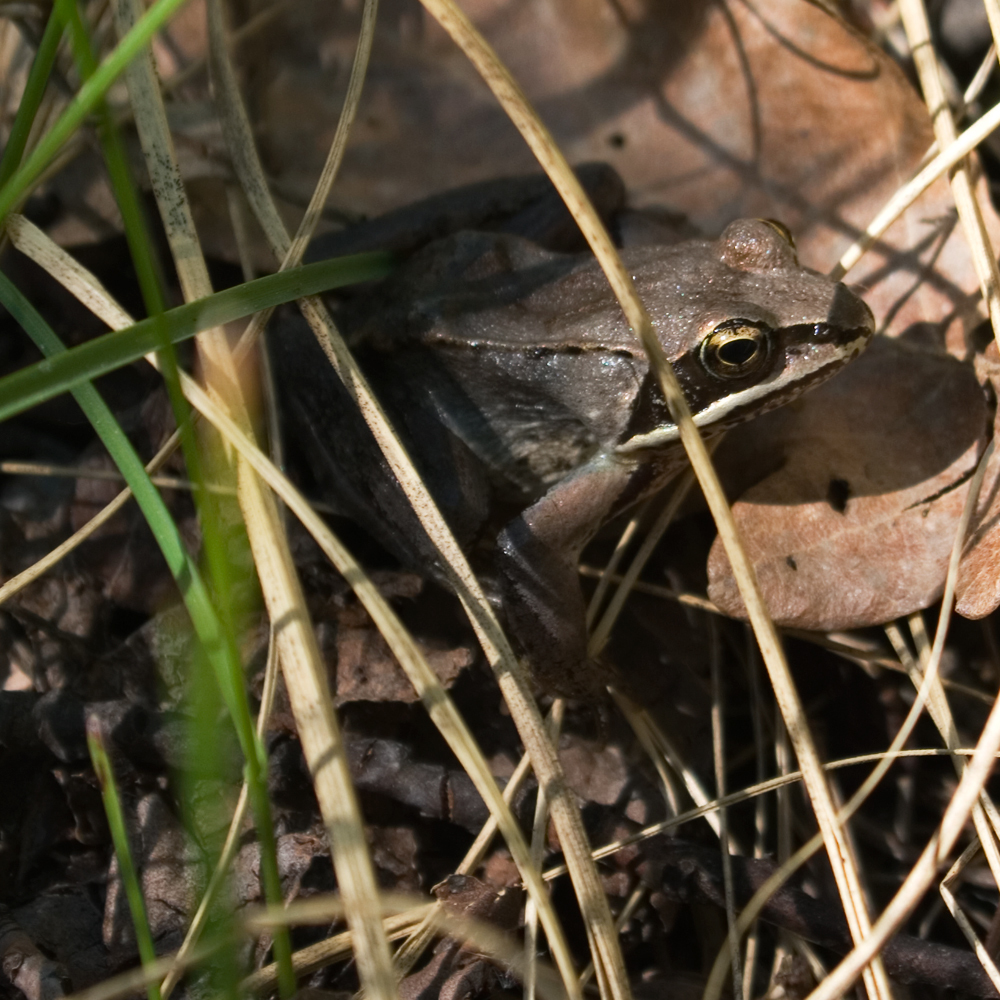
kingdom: Animalia
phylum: Chordata
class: Amphibia
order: Anura
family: Ranidae
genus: Lithobates
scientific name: Lithobates sylvaticus
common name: Wood frog
